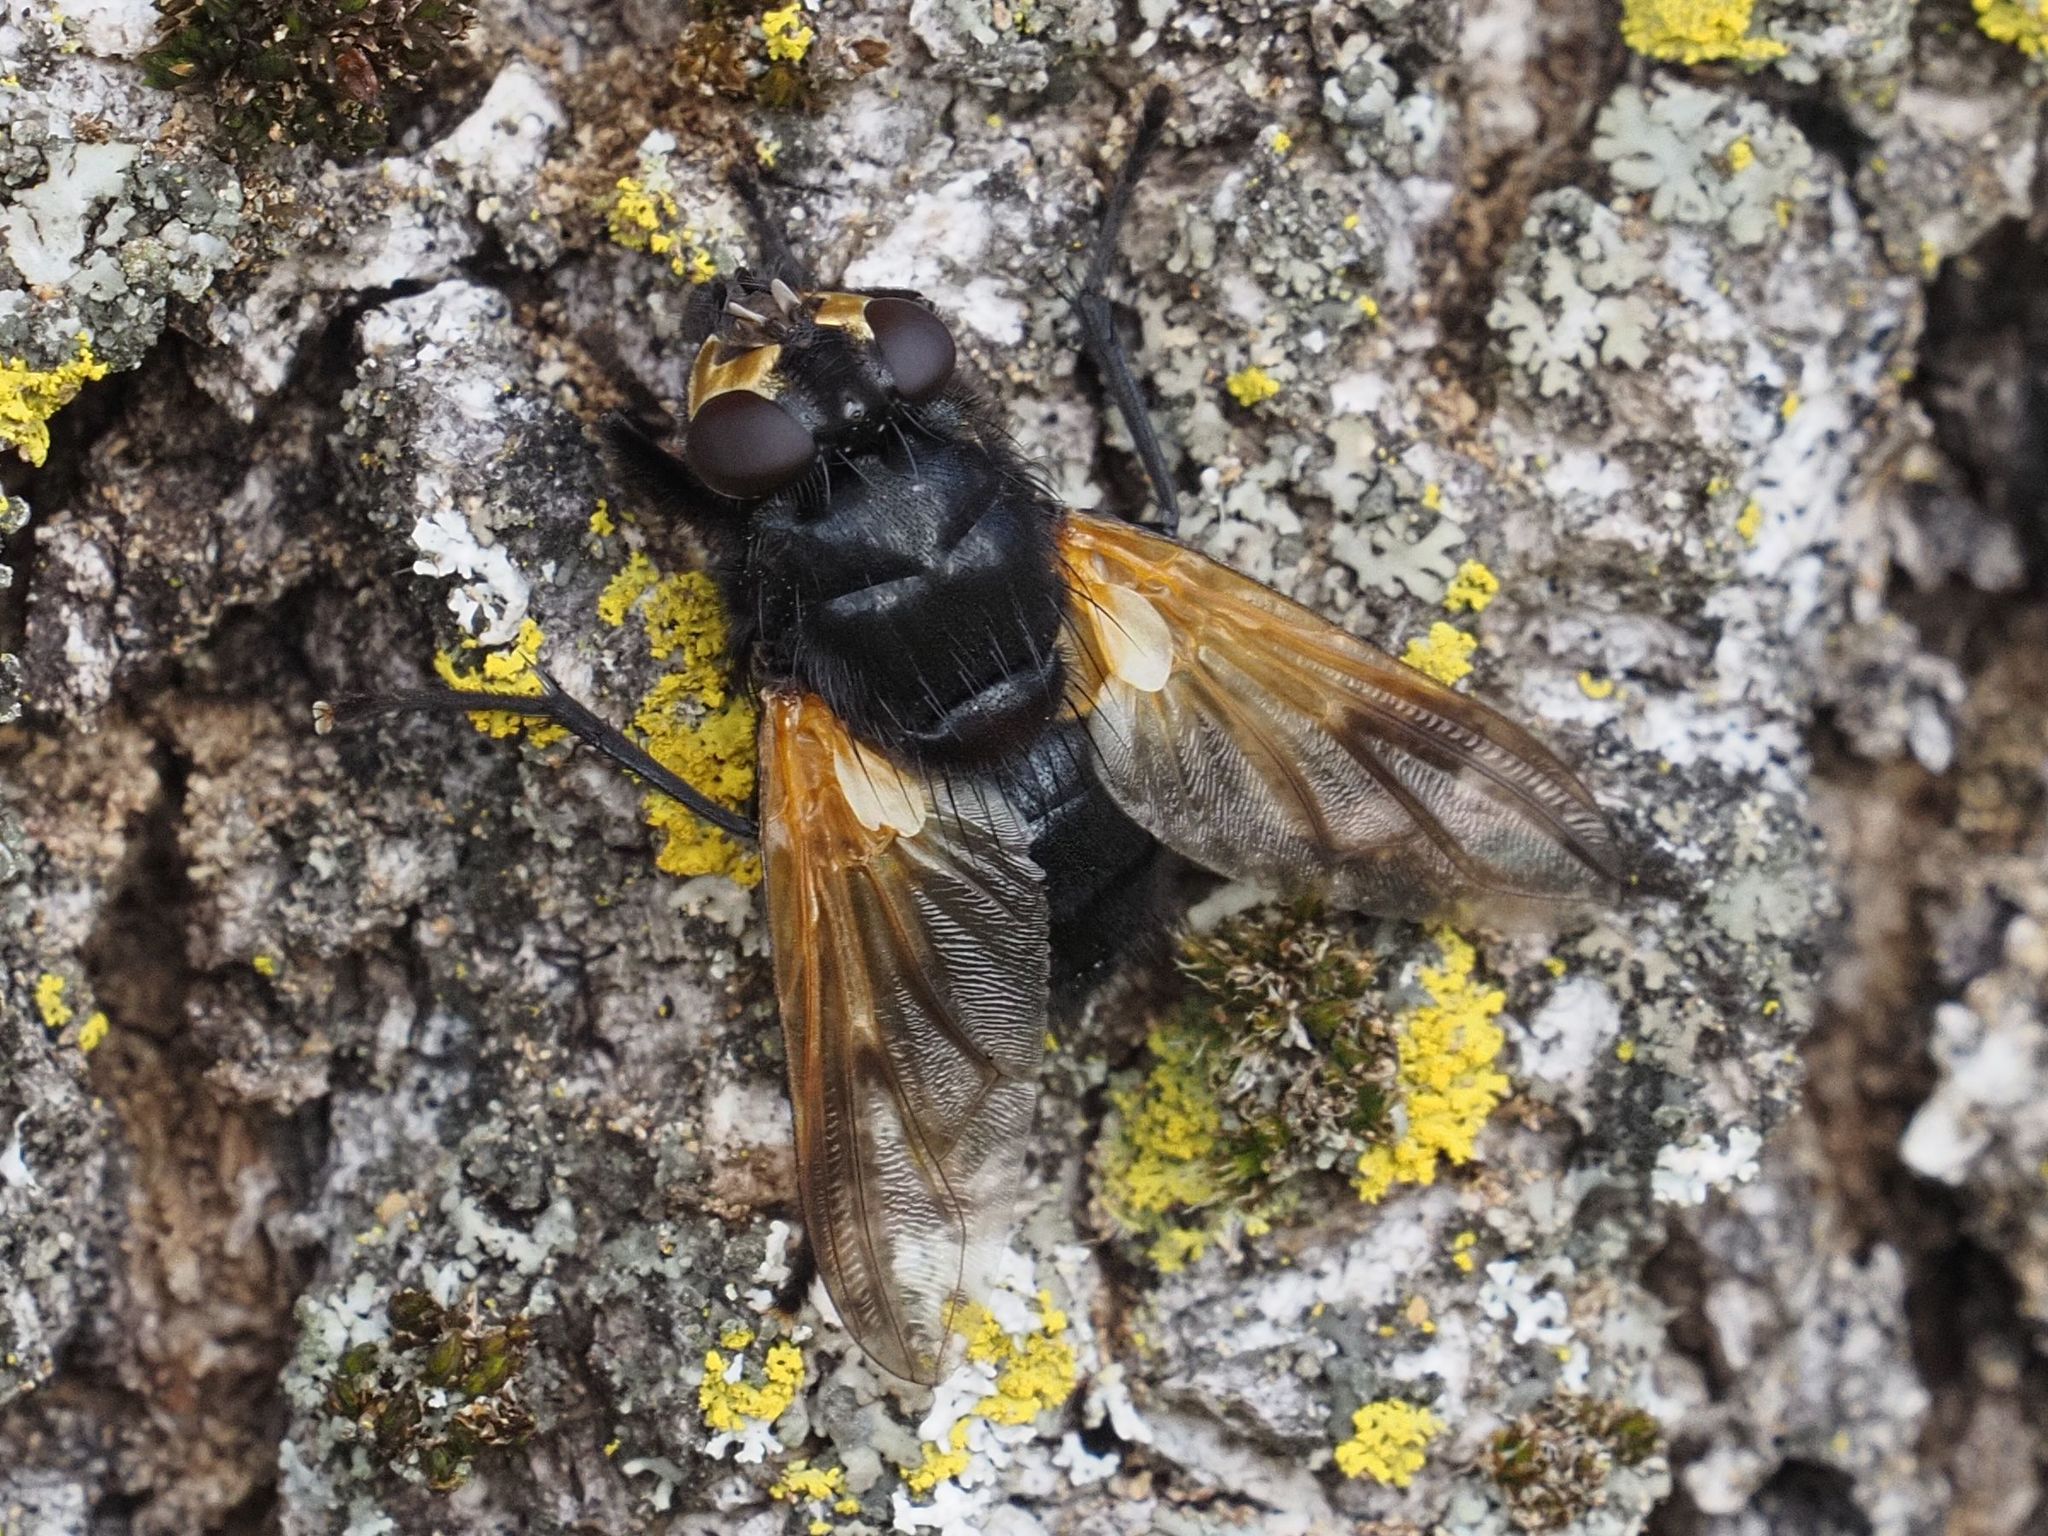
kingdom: Animalia
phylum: Arthropoda
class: Insecta
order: Diptera
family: Muscidae
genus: Mesembrina
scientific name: Mesembrina meridiana
